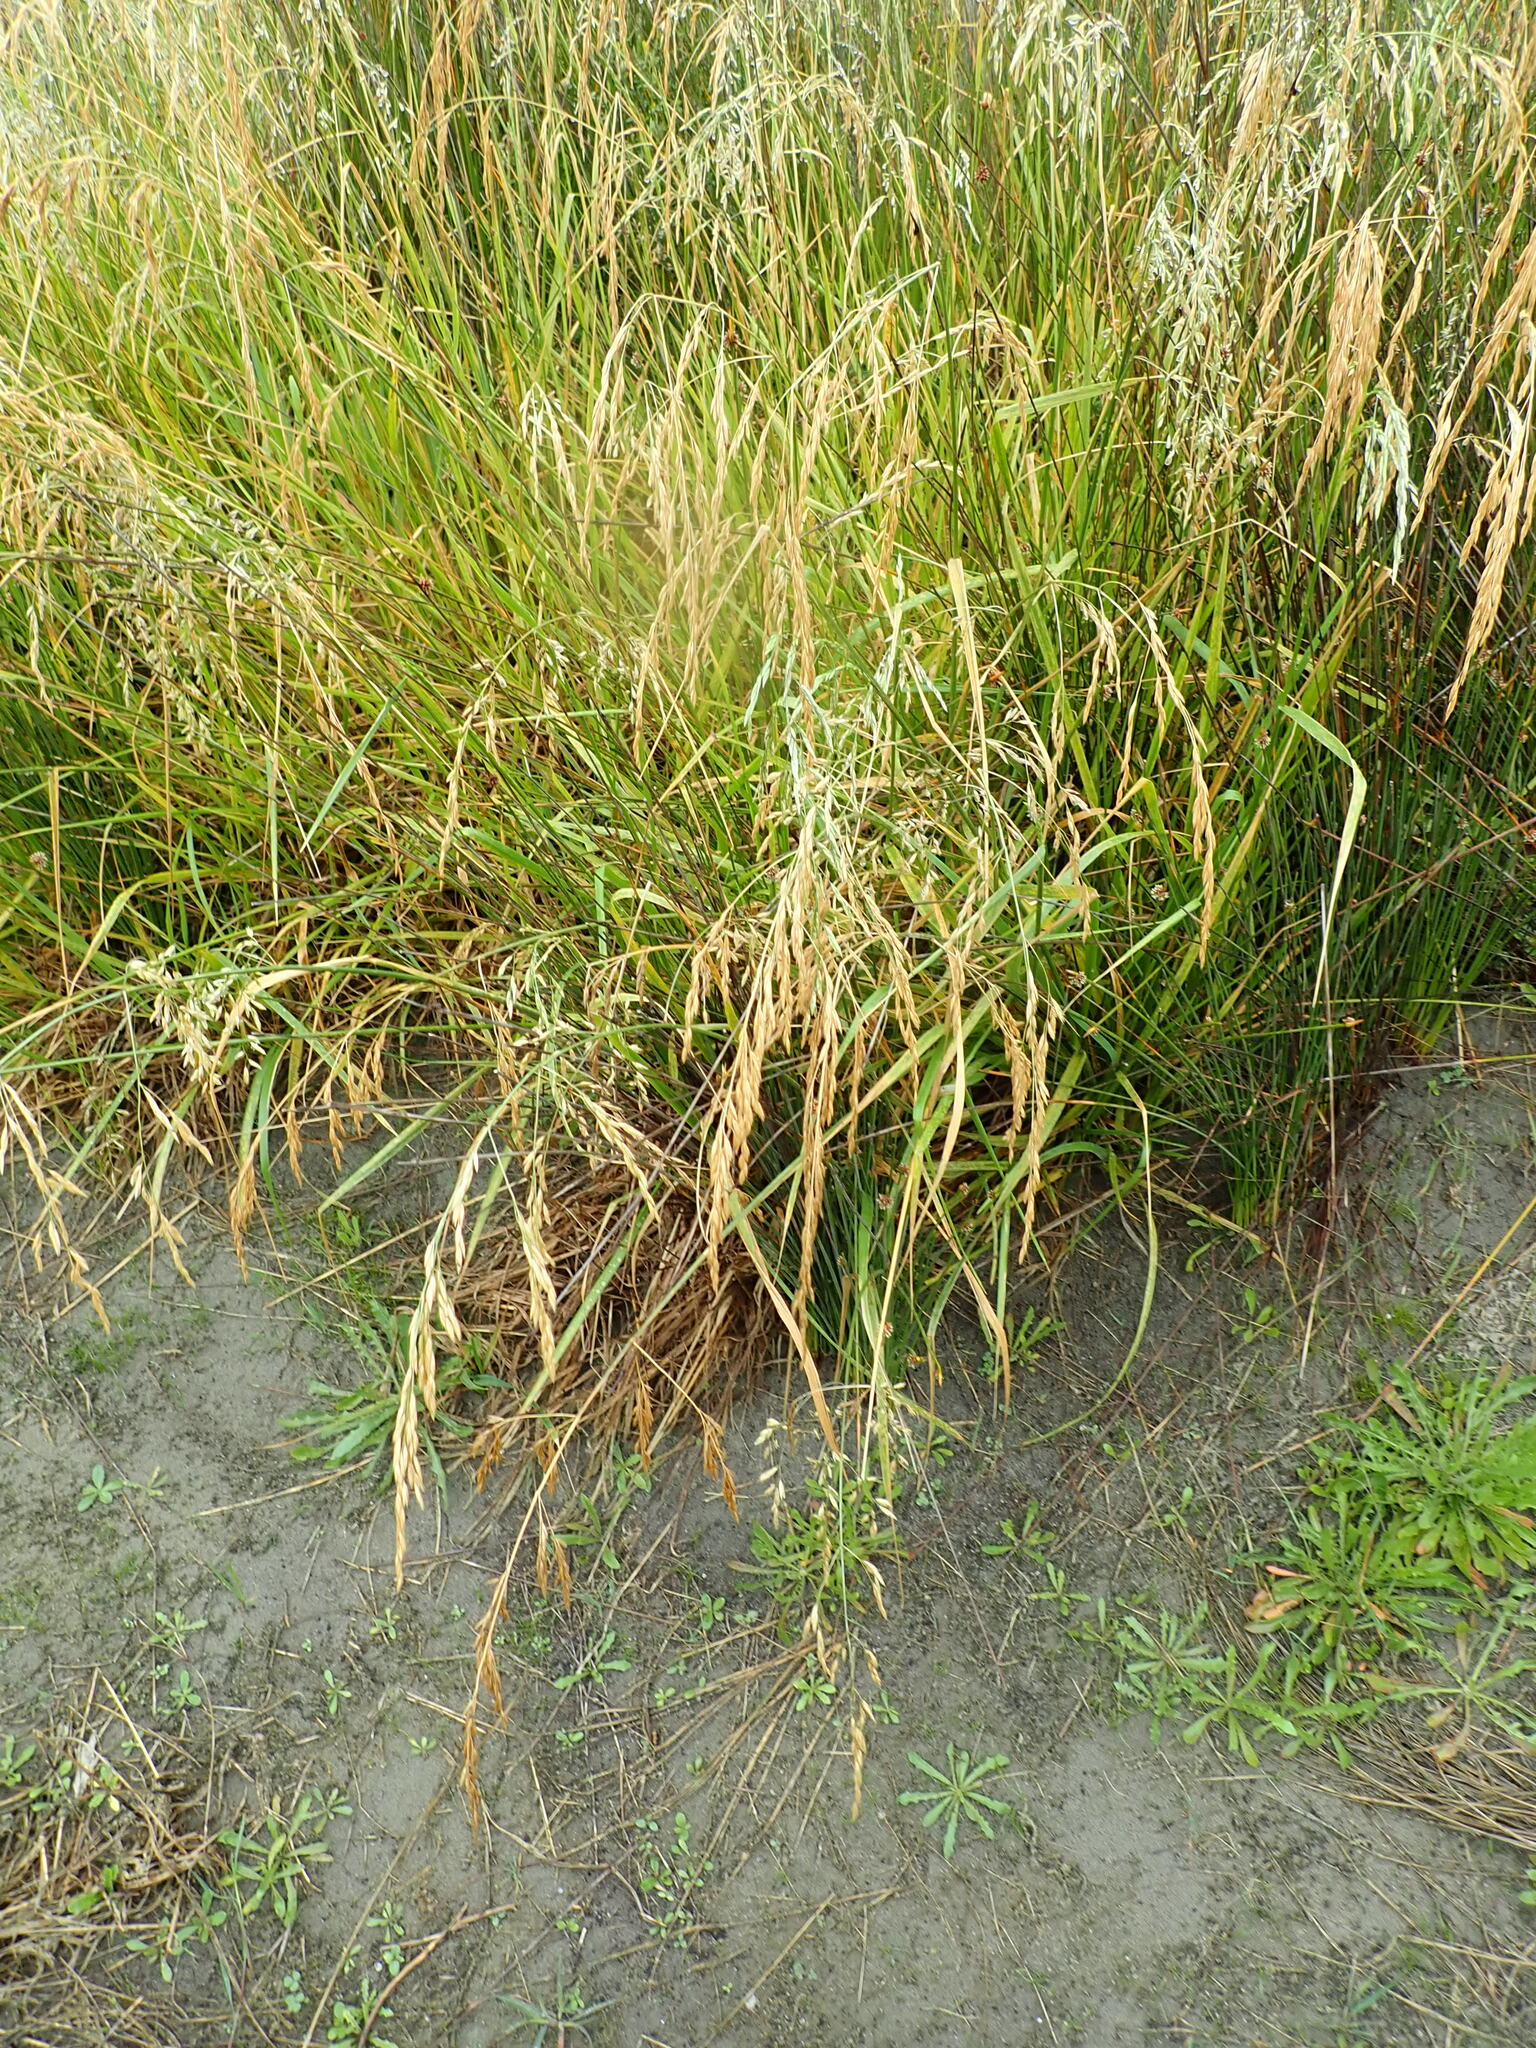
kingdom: Plantae
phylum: Tracheophyta
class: Liliopsida
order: Poales
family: Poaceae
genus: Lolium
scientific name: Lolium arundinaceum
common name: Reed fescue
